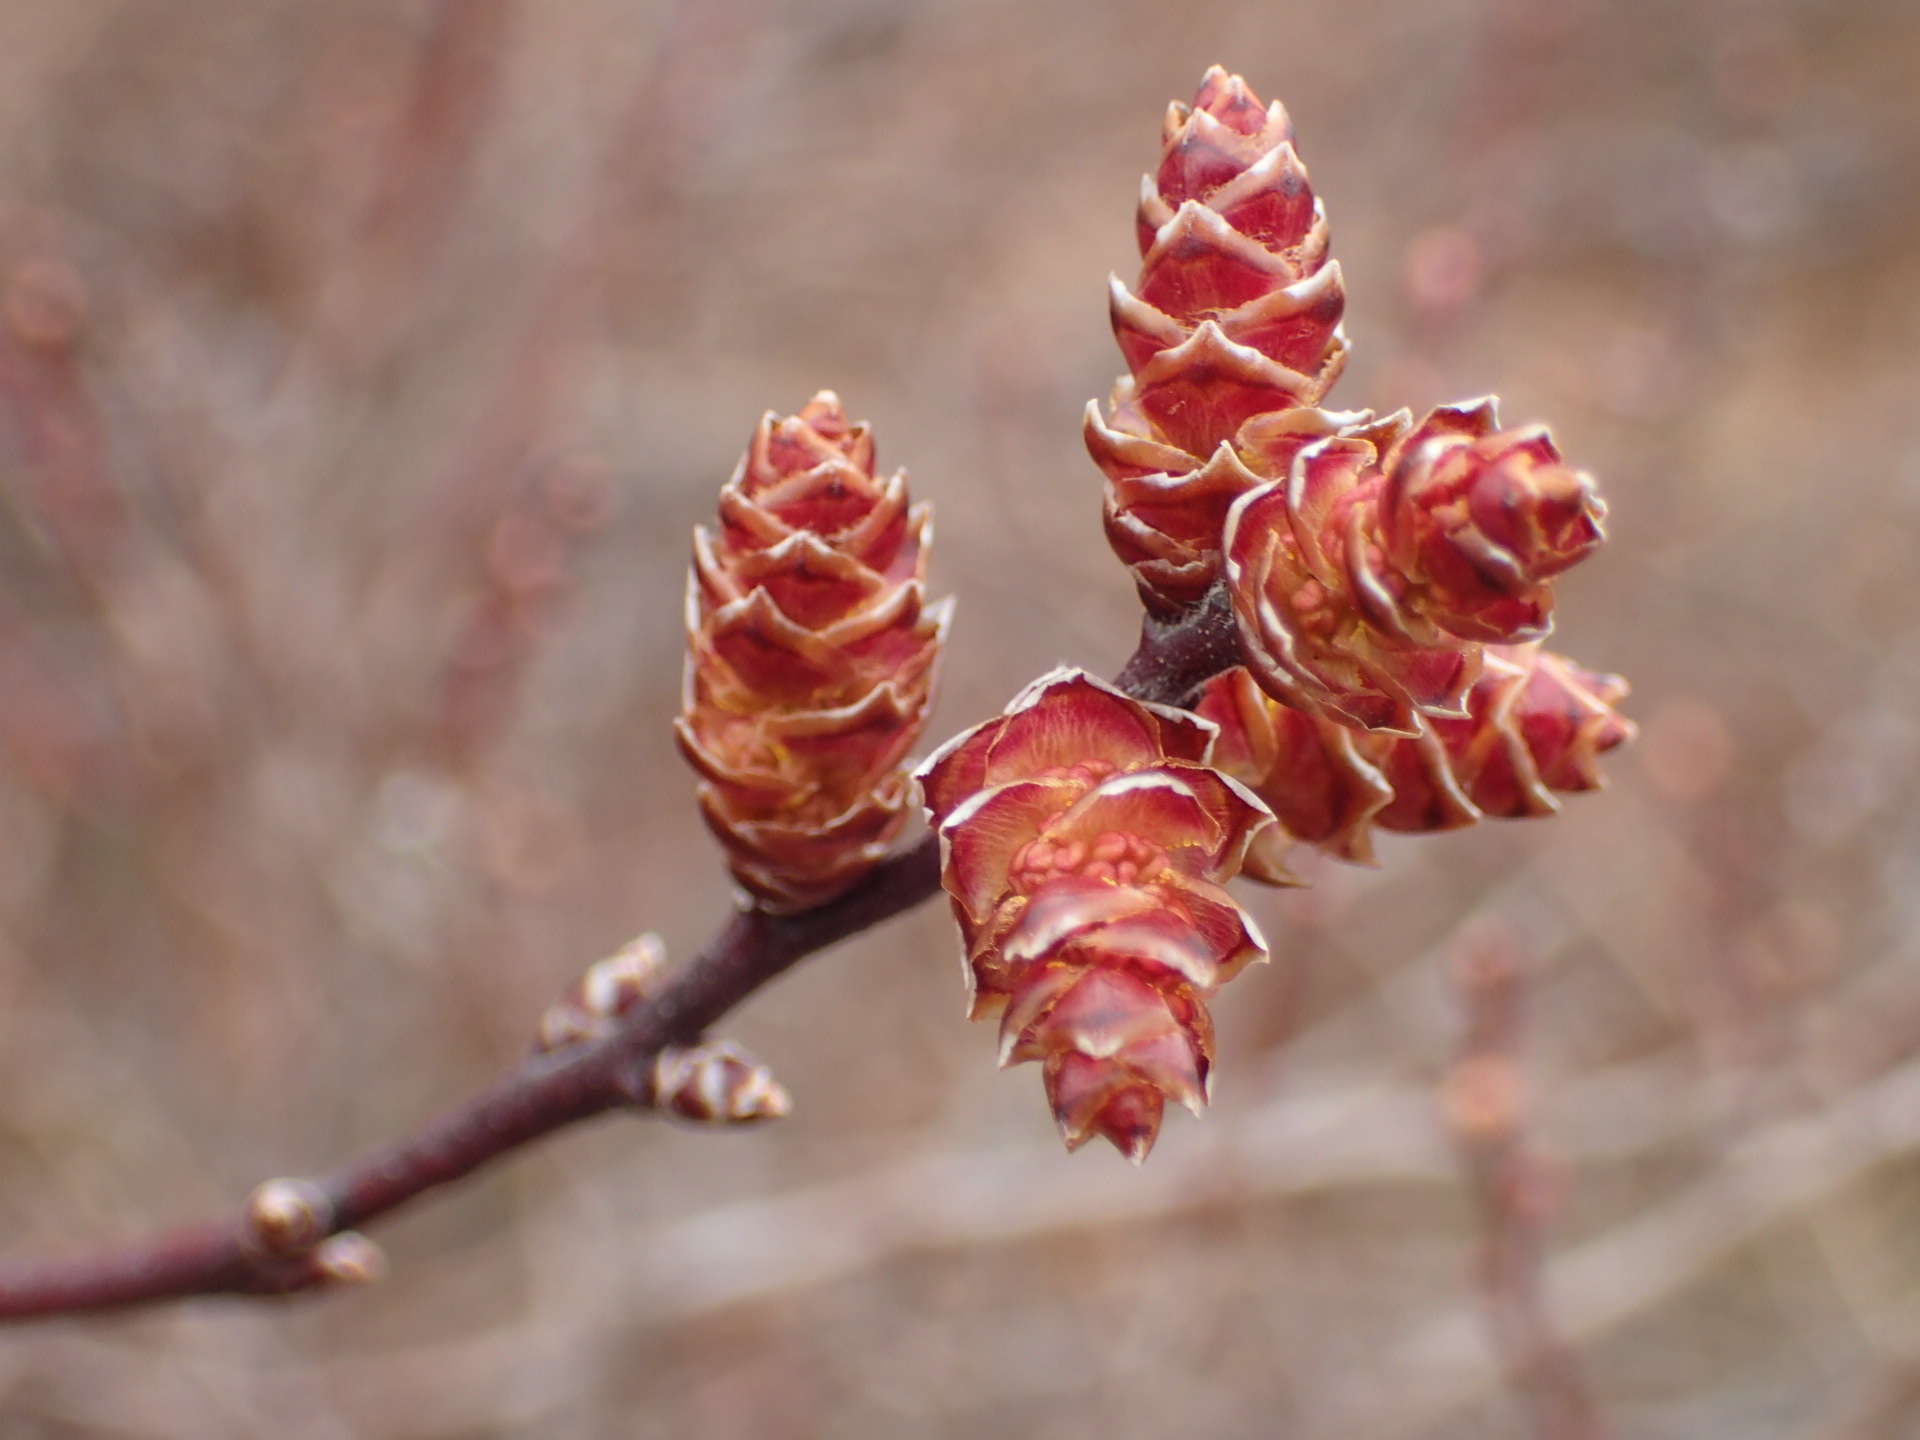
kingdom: Plantae
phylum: Tracheophyta
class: Magnoliopsida
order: Fagales
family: Myricaceae
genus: Myrica
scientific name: Myrica gale
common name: Sweet gale
